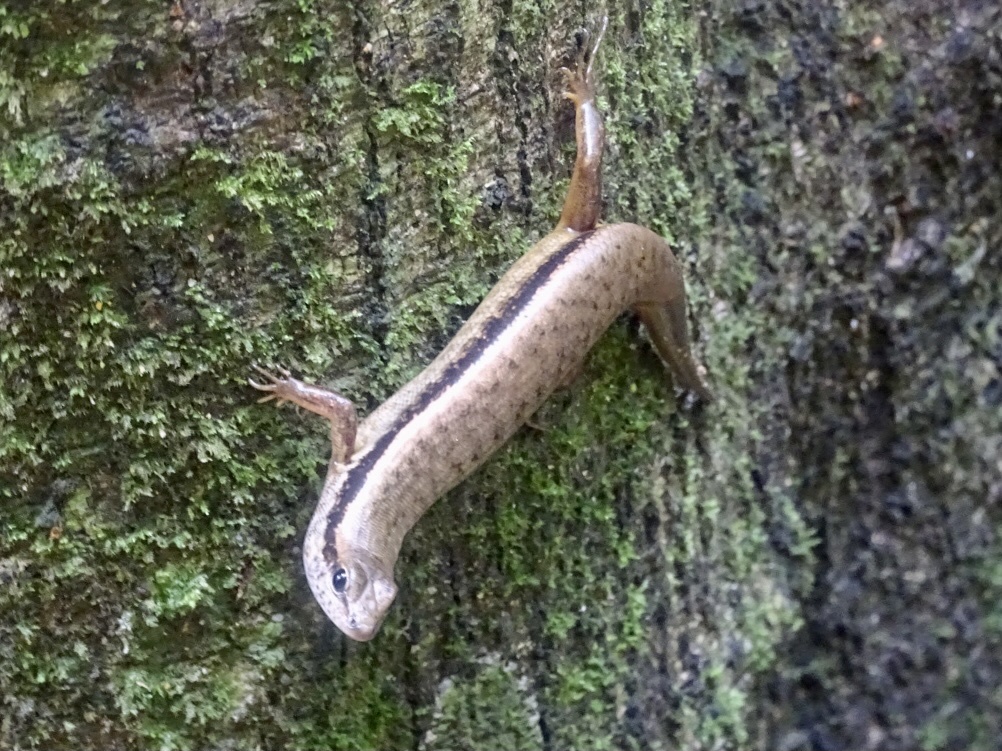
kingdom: Animalia
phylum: Chordata
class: Squamata
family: Scincidae
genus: Sphenomorphus
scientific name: Sphenomorphus indicus
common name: Himalayan forest skink
